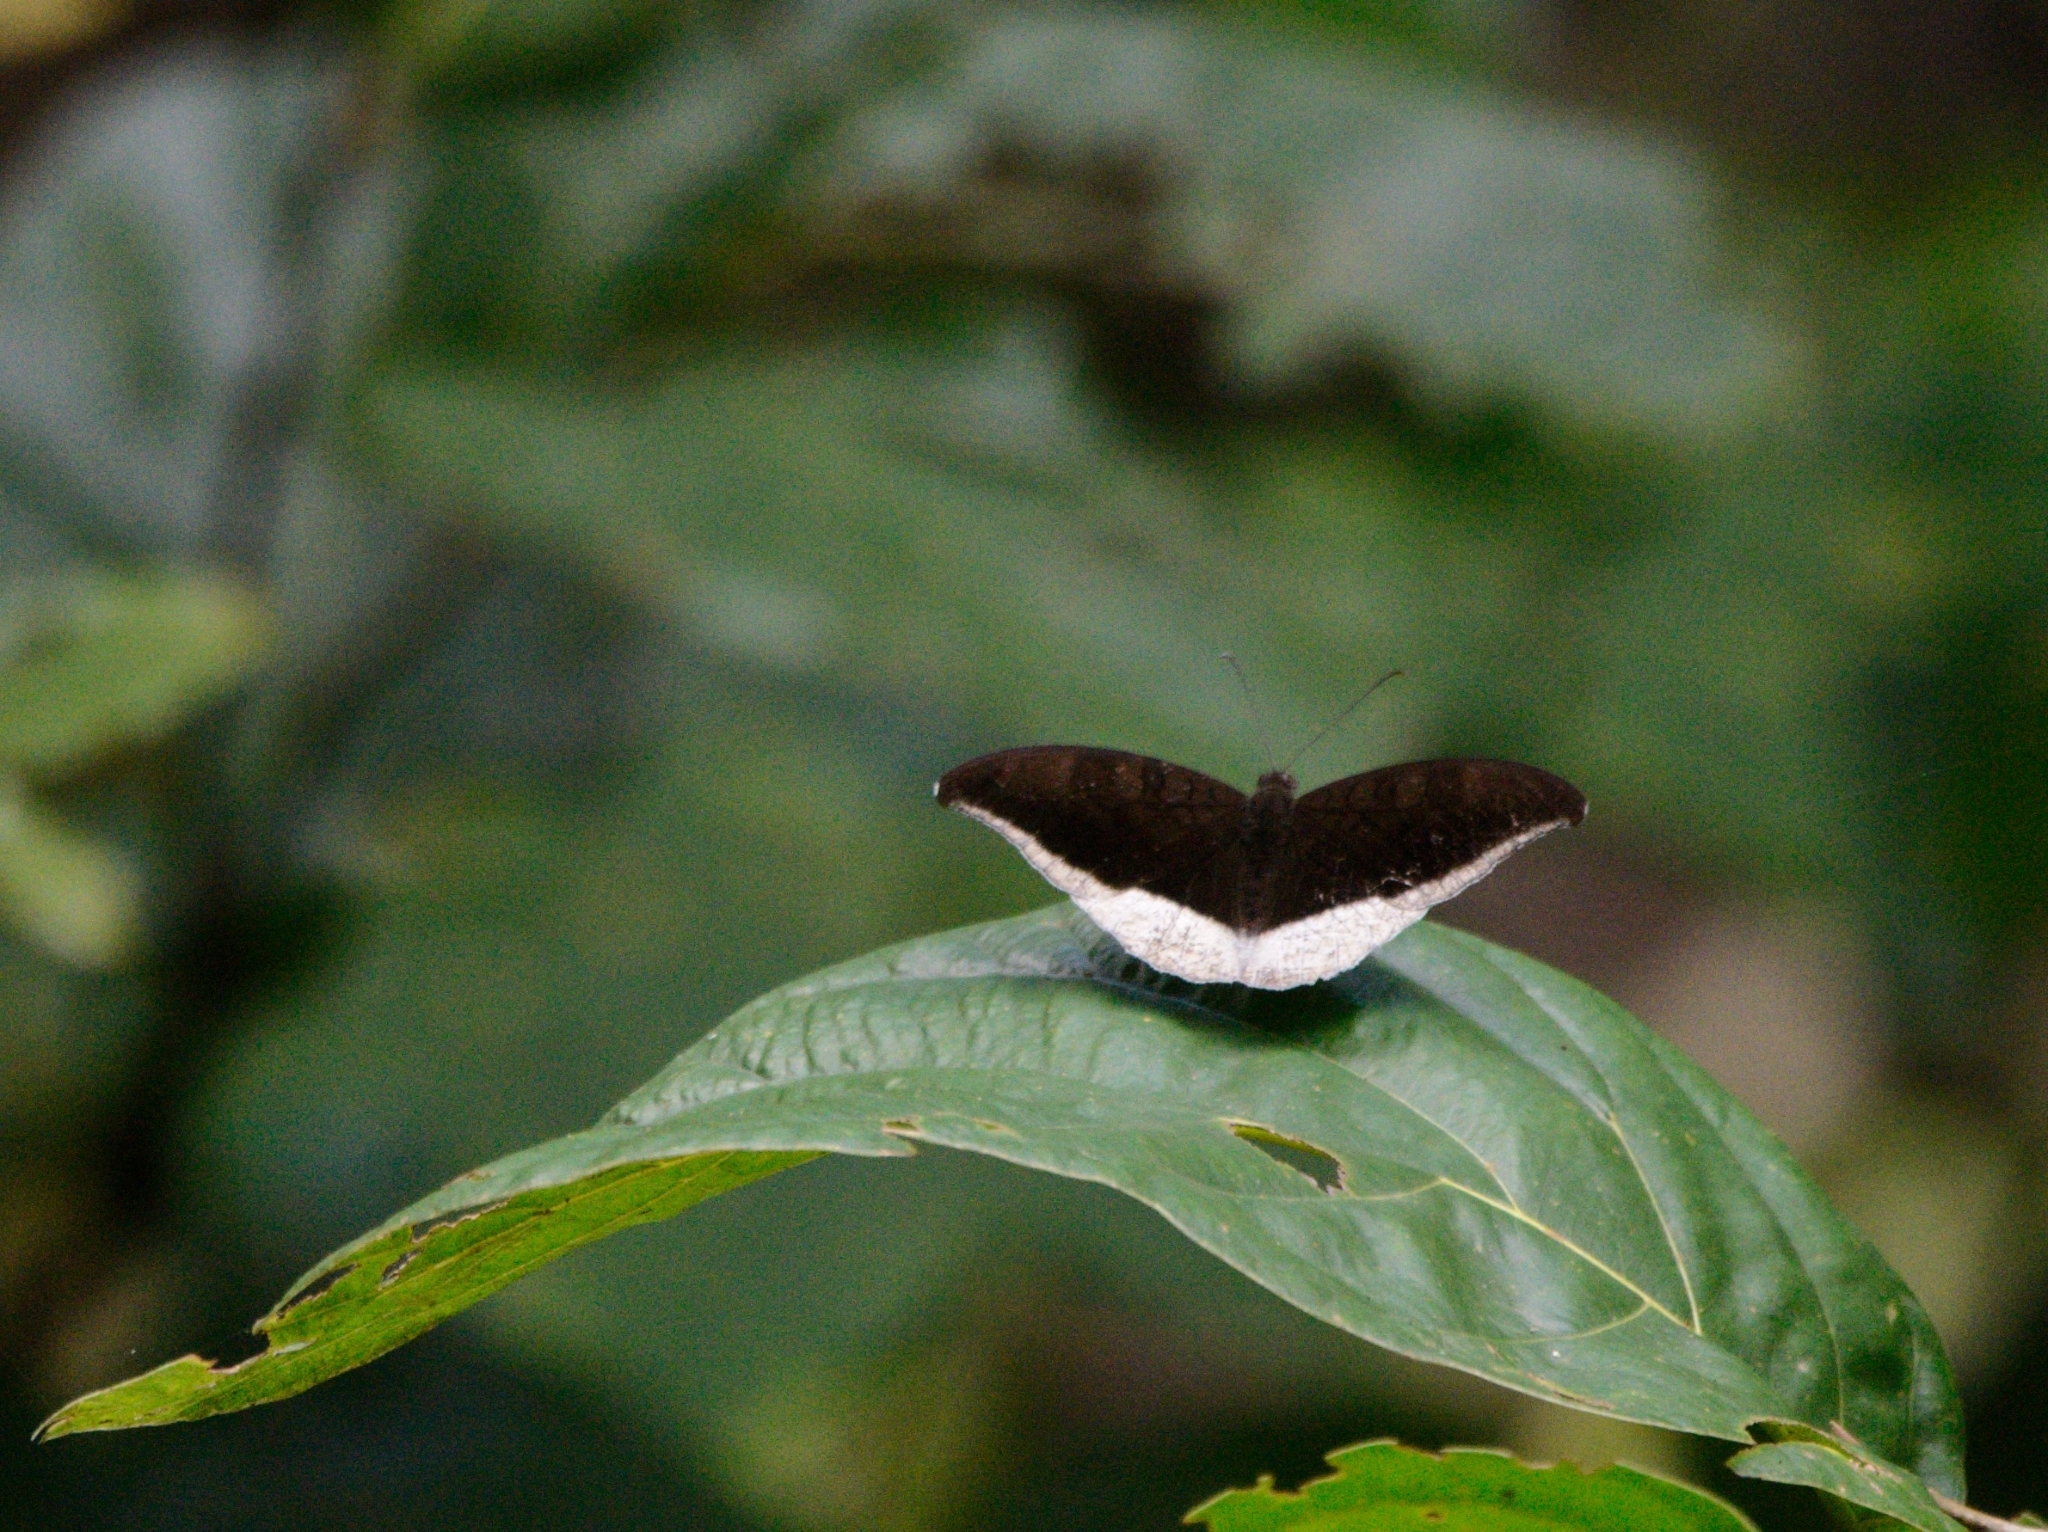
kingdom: Animalia
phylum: Arthropoda
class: Insecta
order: Lepidoptera
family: Nymphalidae
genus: Tanaecia
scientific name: Tanaecia lepidea
